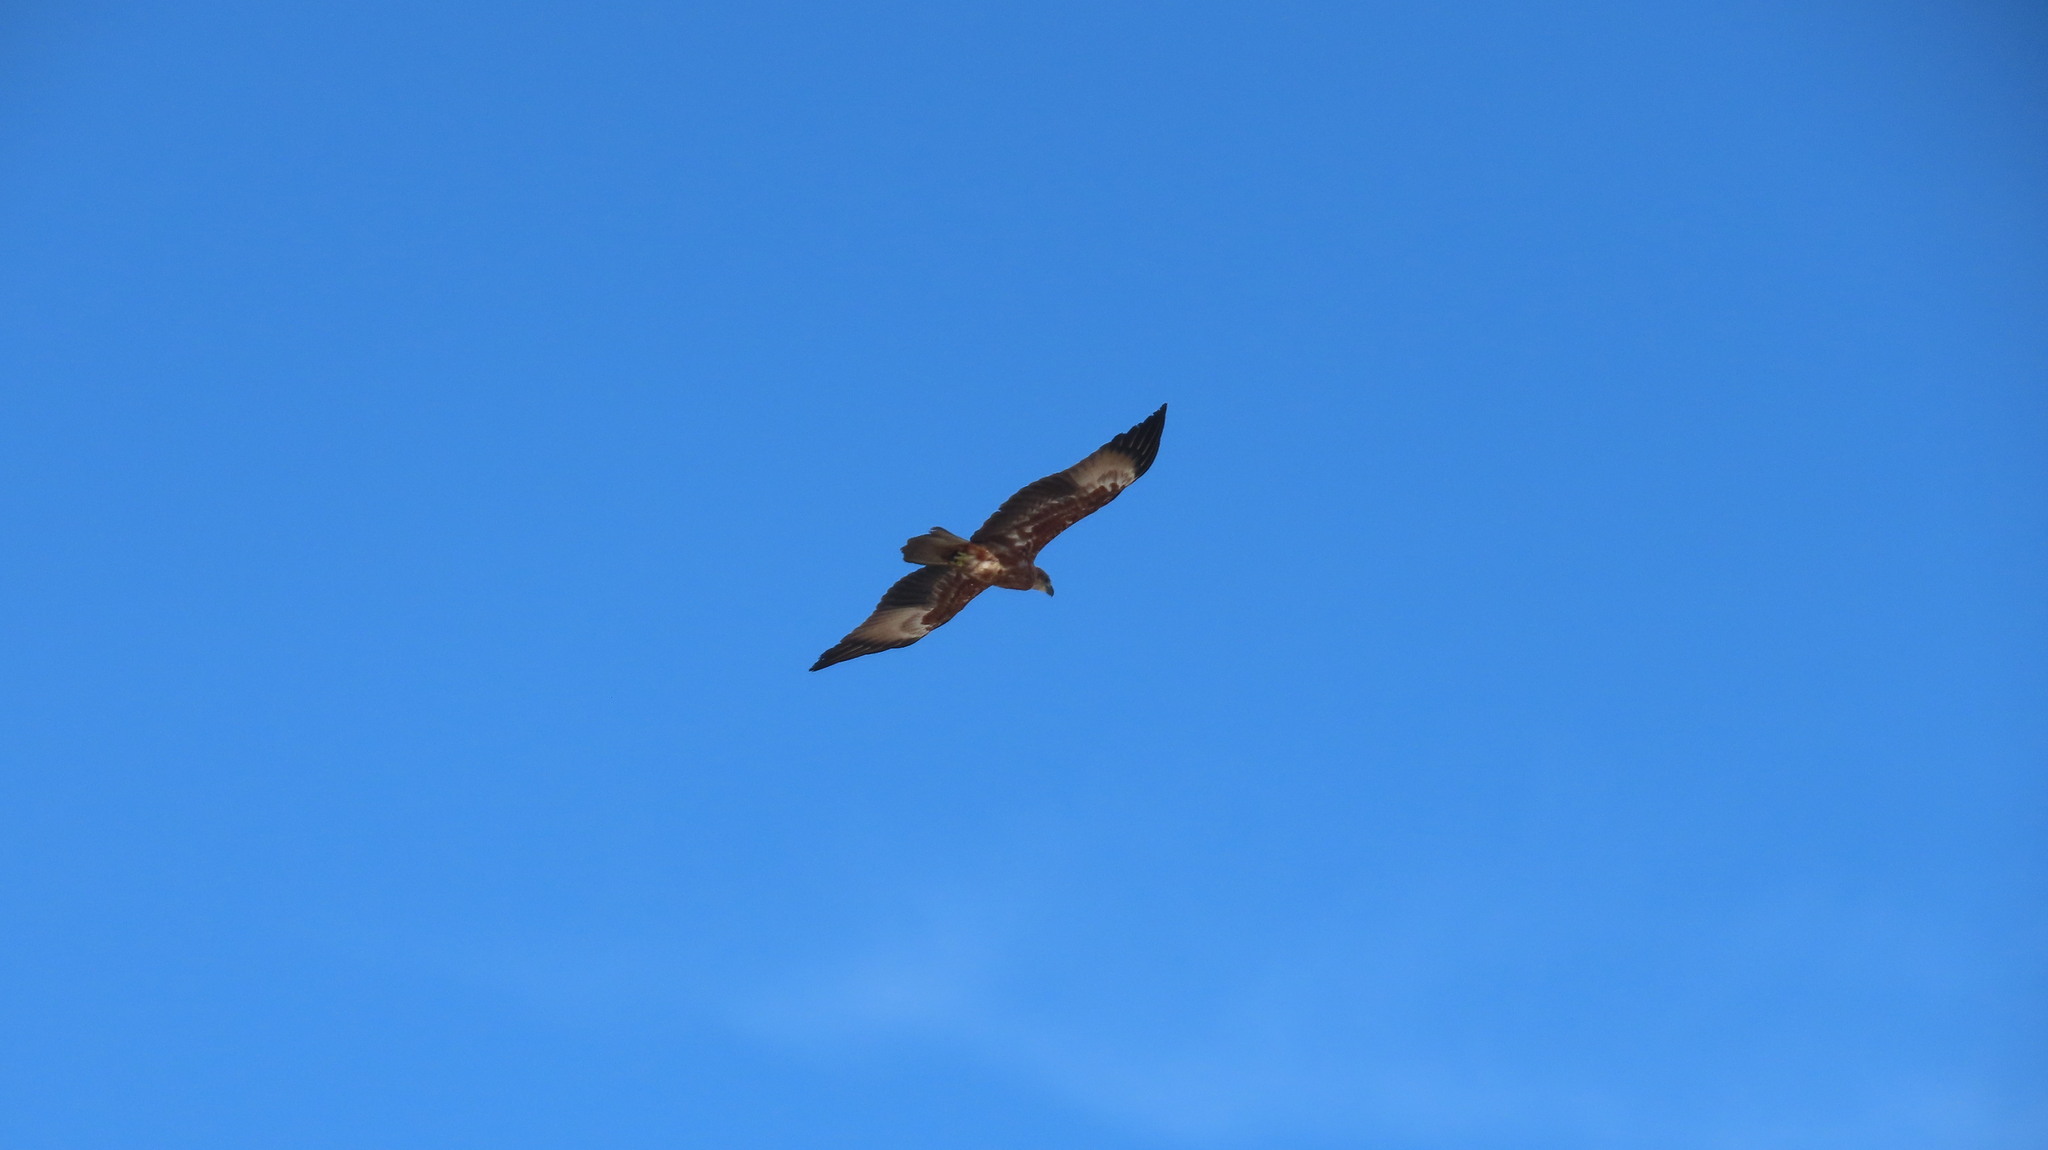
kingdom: Animalia
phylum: Chordata
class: Aves
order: Accipitriformes
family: Accipitridae
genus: Haliastur
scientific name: Haliastur indus
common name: Brahminy kite
